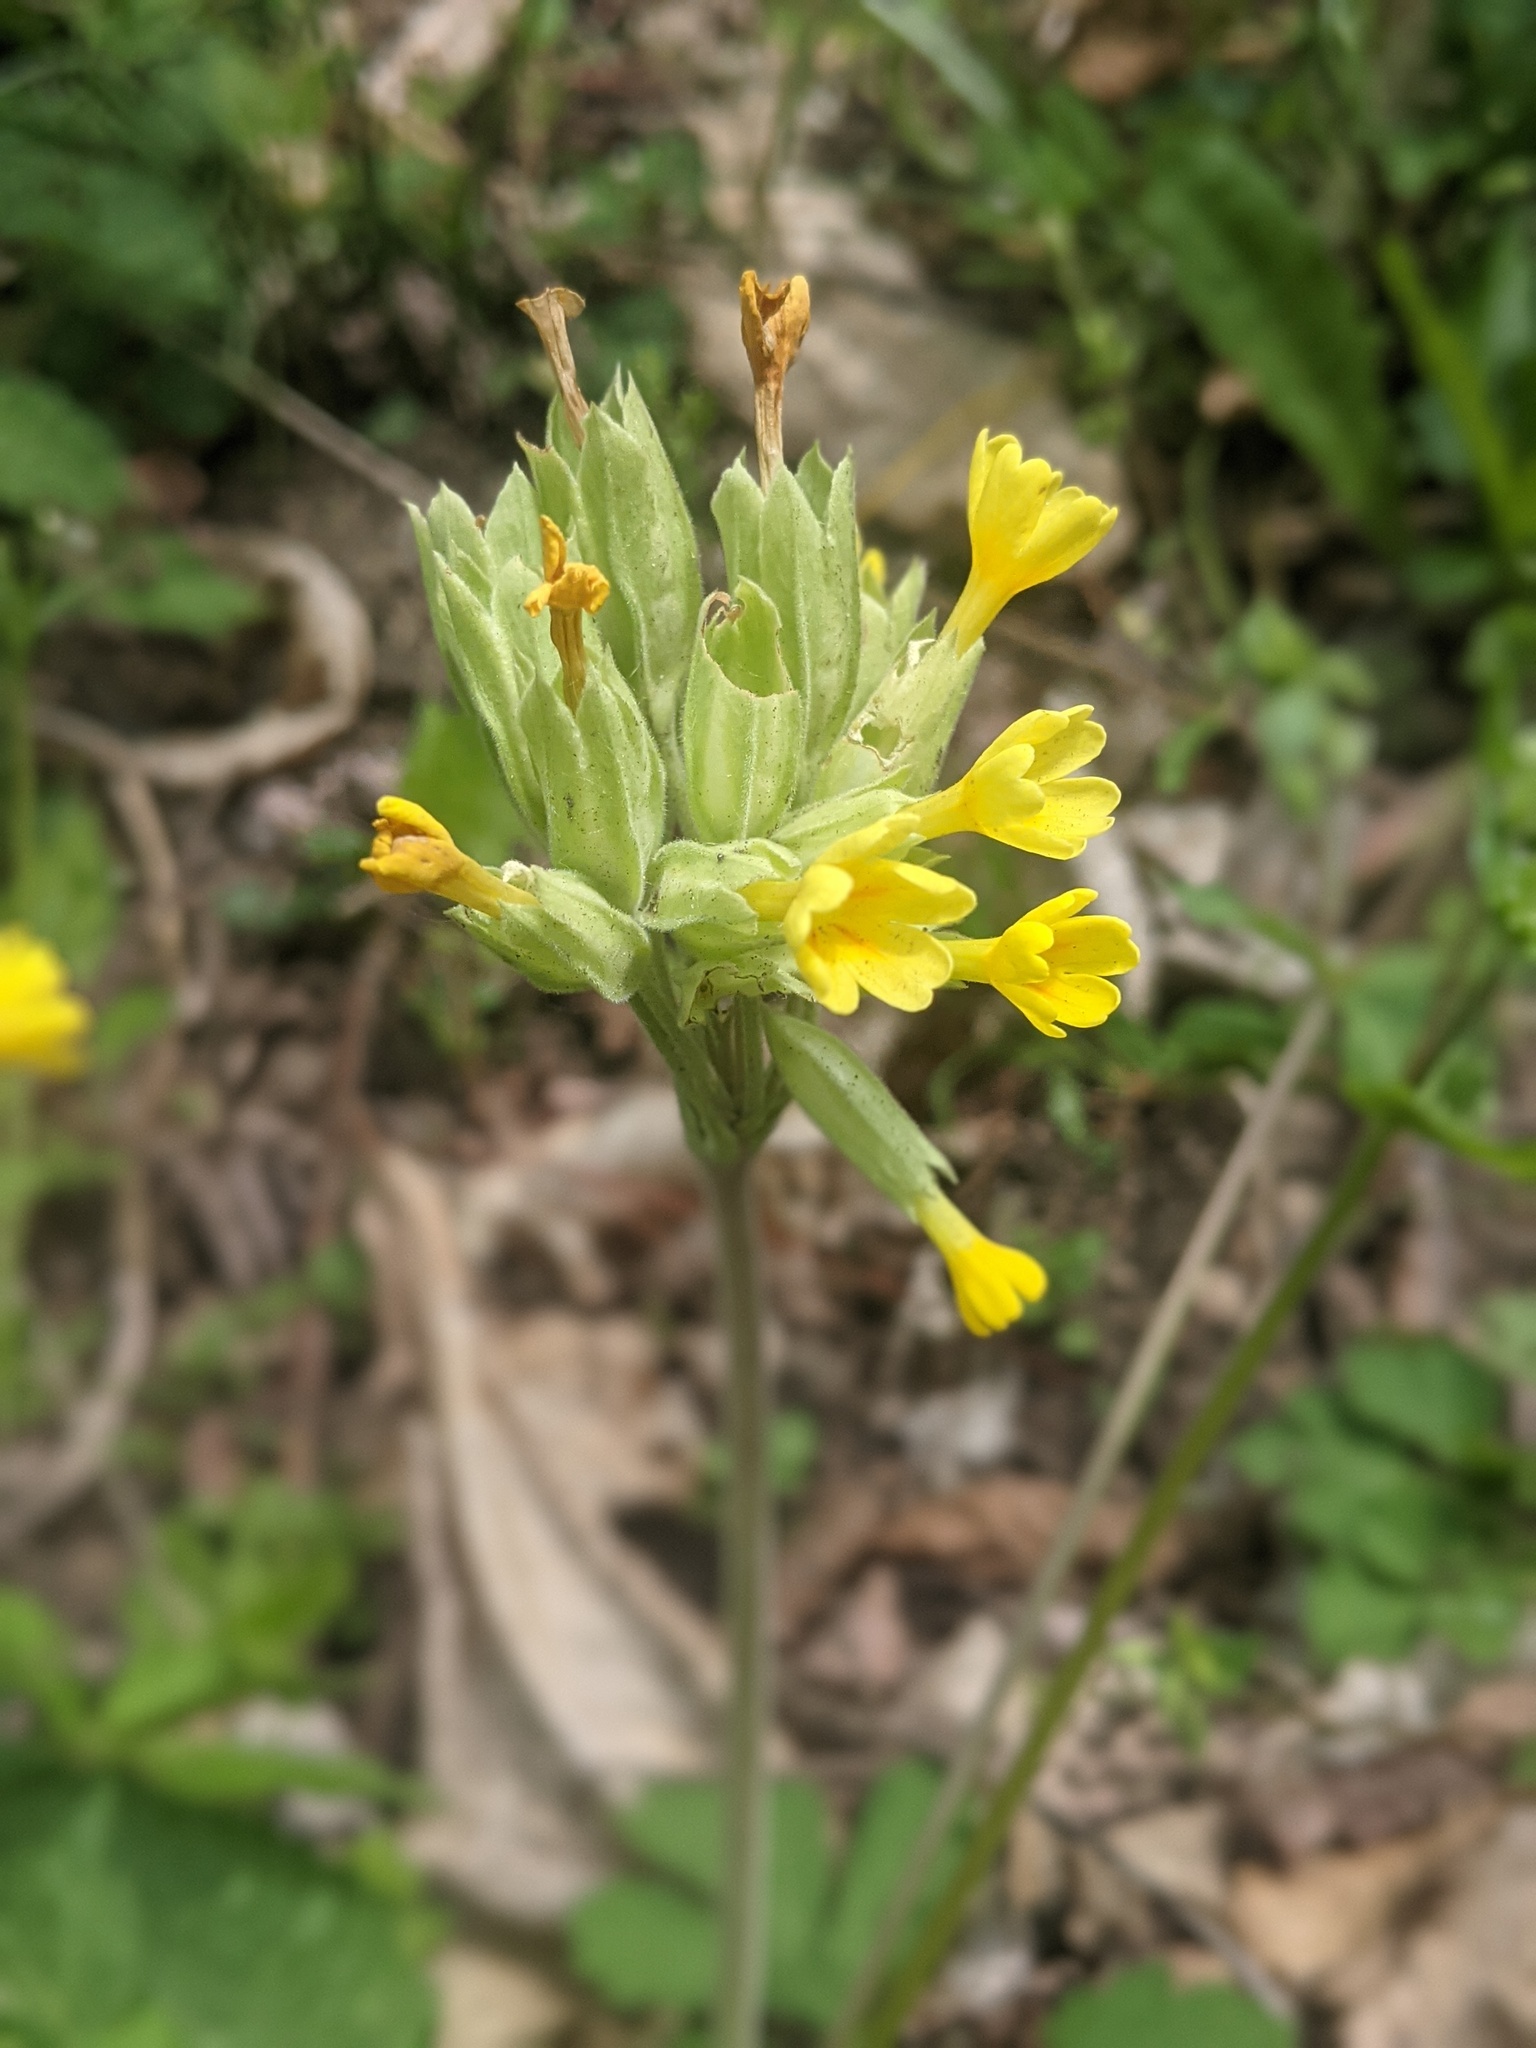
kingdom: Plantae
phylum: Tracheophyta
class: Magnoliopsida
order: Ericales
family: Primulaceae
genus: Primula
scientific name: Primula veris
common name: Cowslip
